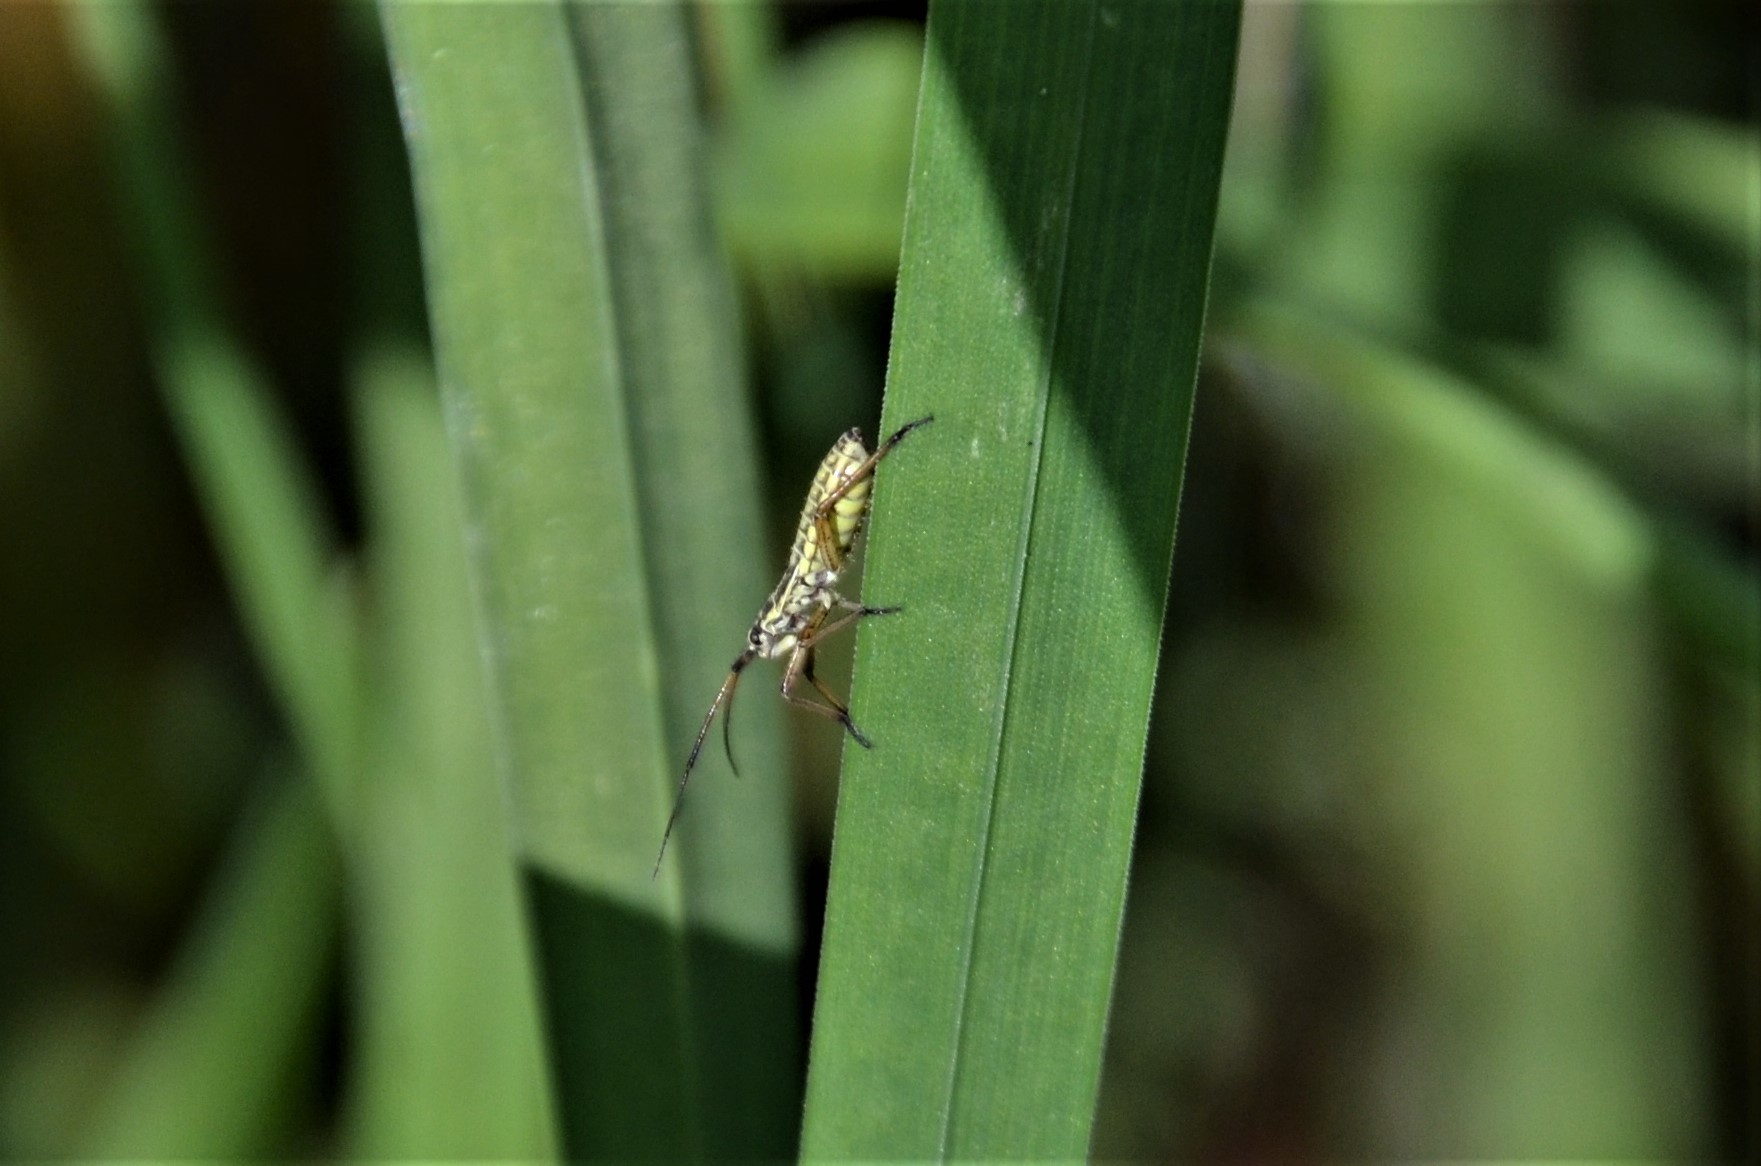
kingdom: Animalia
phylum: Arthropoda
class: Insecta
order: Hemiptera
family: Miridae
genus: Leptopterna
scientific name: Leptopterna dolabrata
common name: Meadow plant bug
